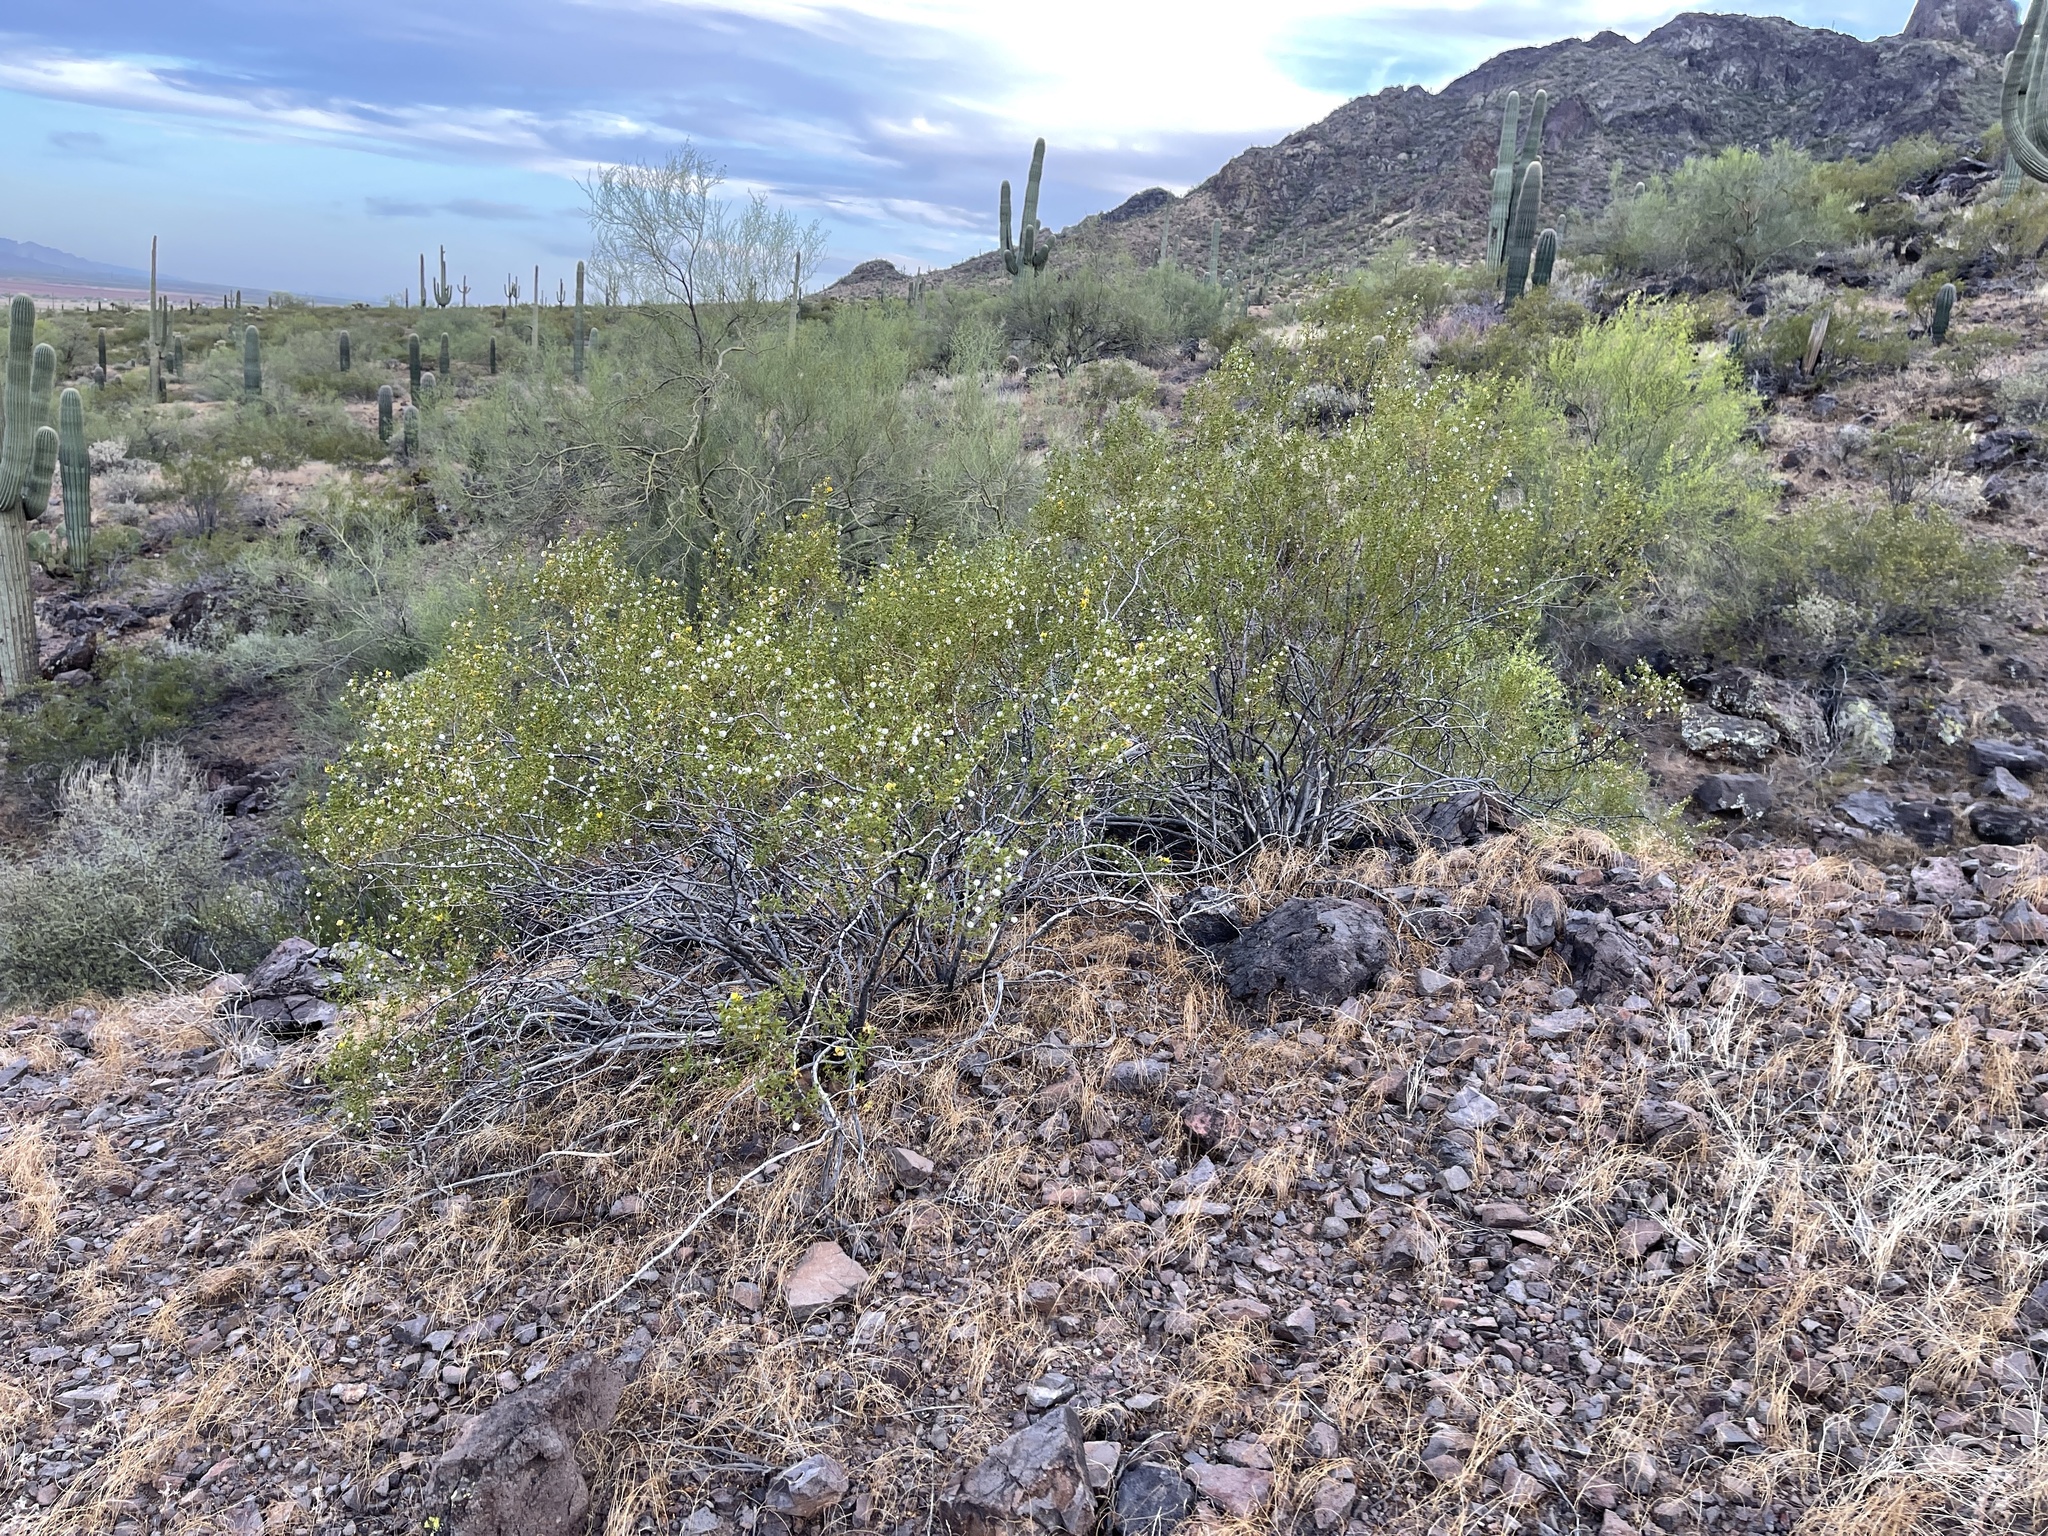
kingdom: Plantae
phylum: Tracheophyta
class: Magnoliopsida
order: Zygophyllales
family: Zygophyllaceae
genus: Larrea
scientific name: Larrea tridentata
